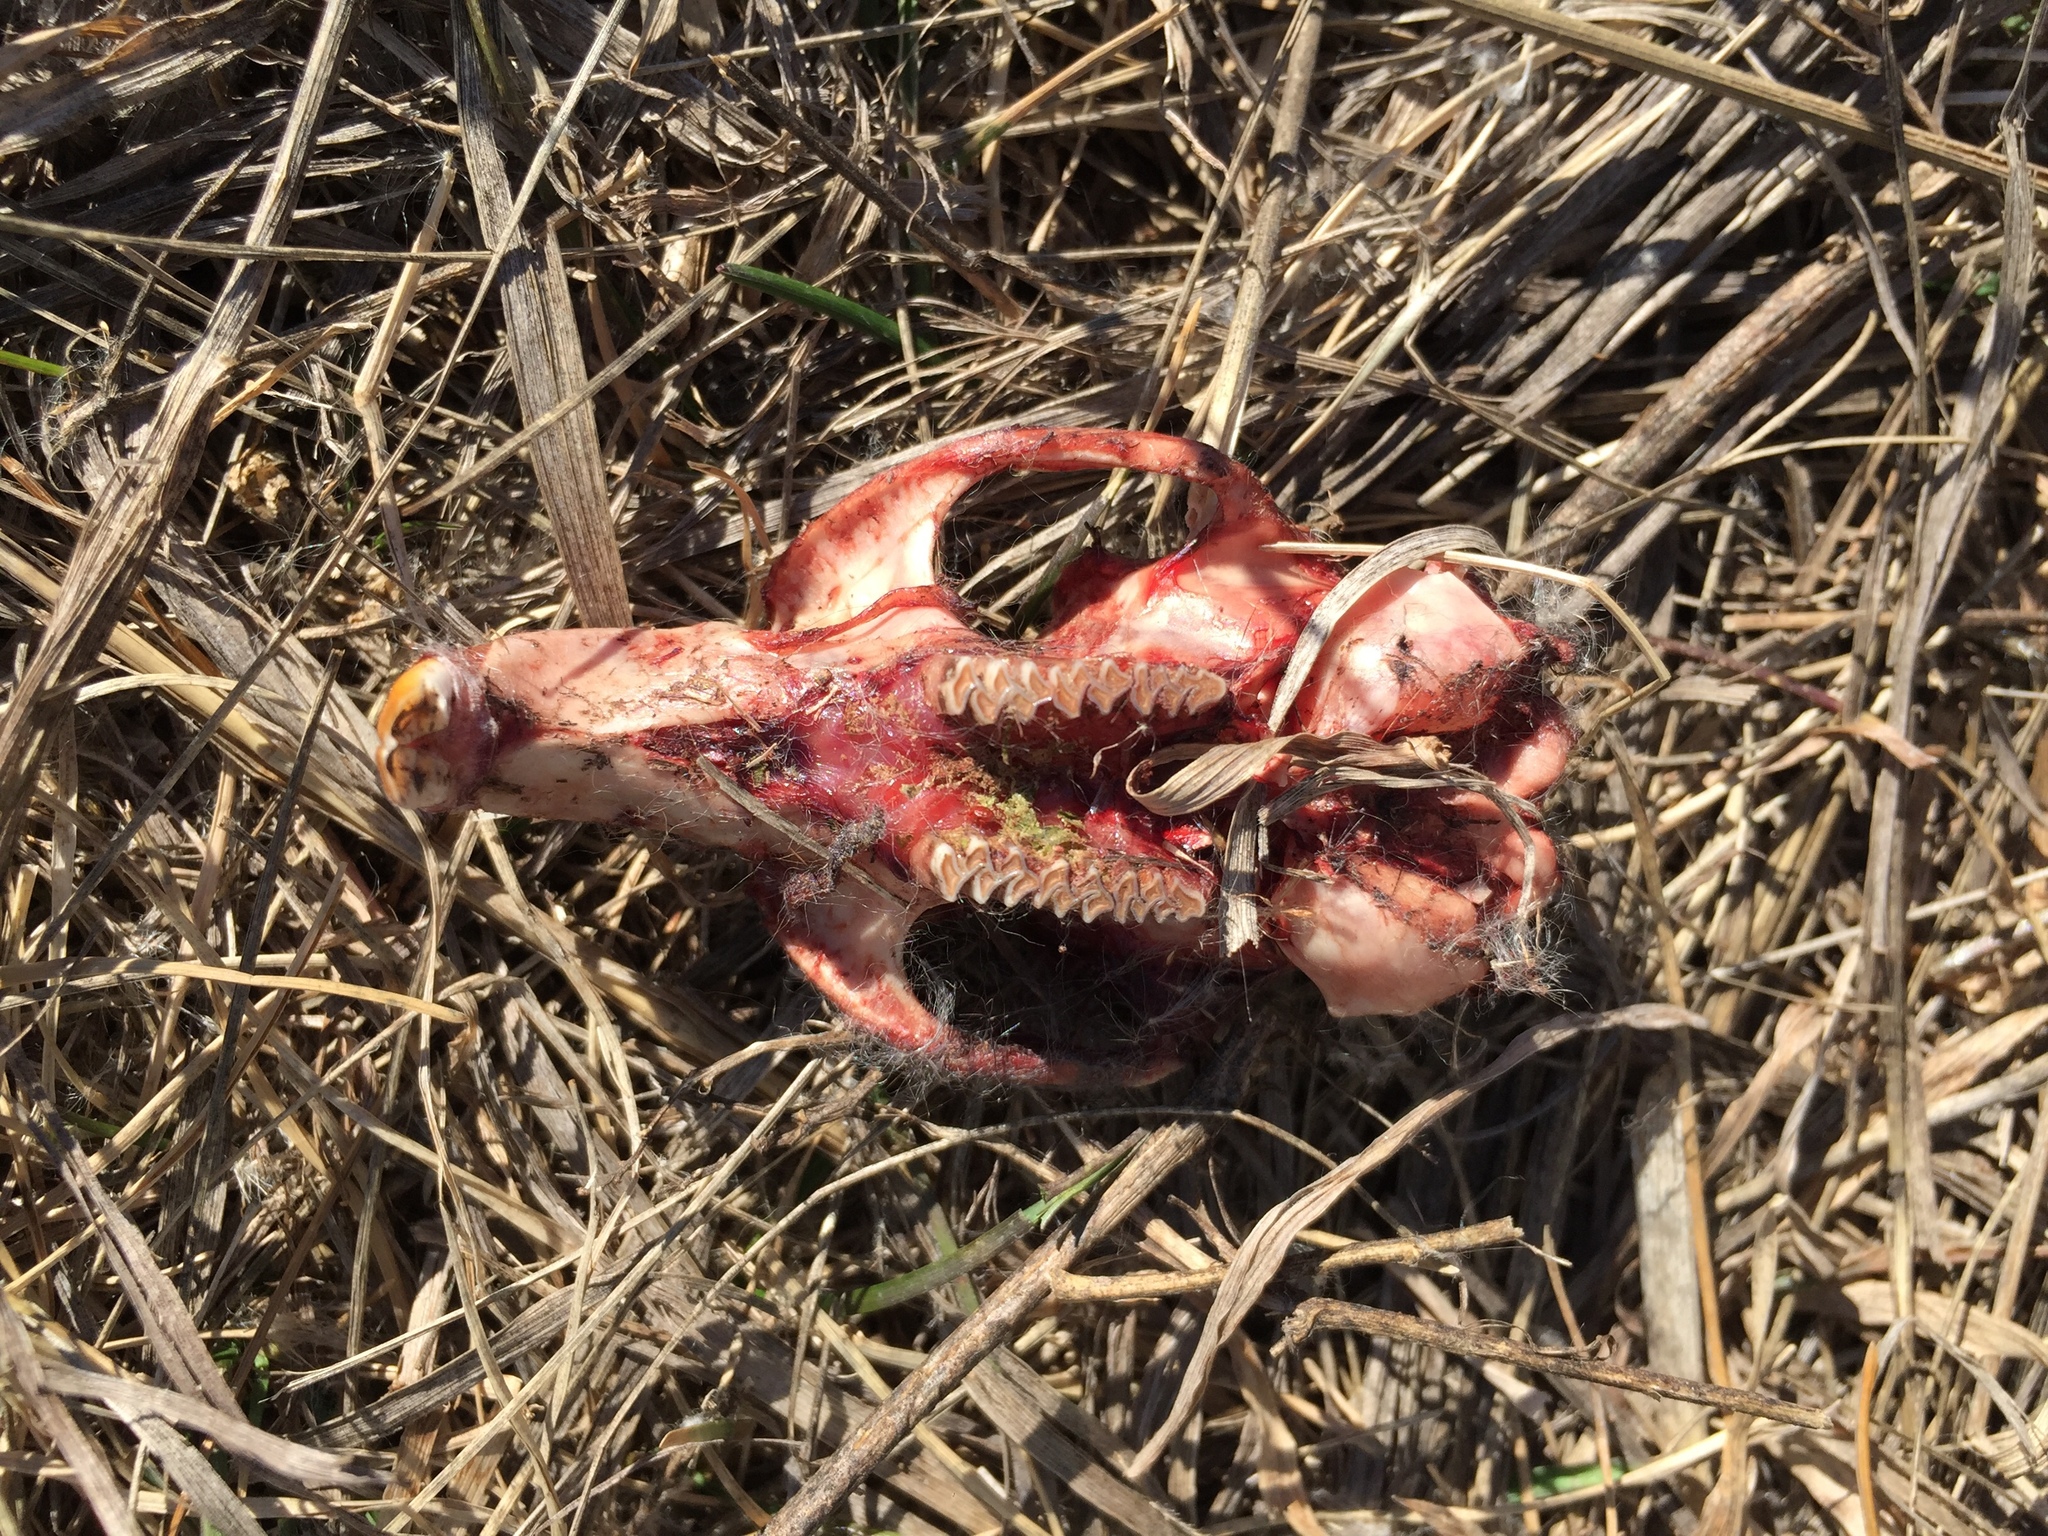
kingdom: Animalia
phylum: Chordata
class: Mammalia
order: Rodentia
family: Cricetidae
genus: Ondatra
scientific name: Ondatra zibethicus
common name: Muskrat
